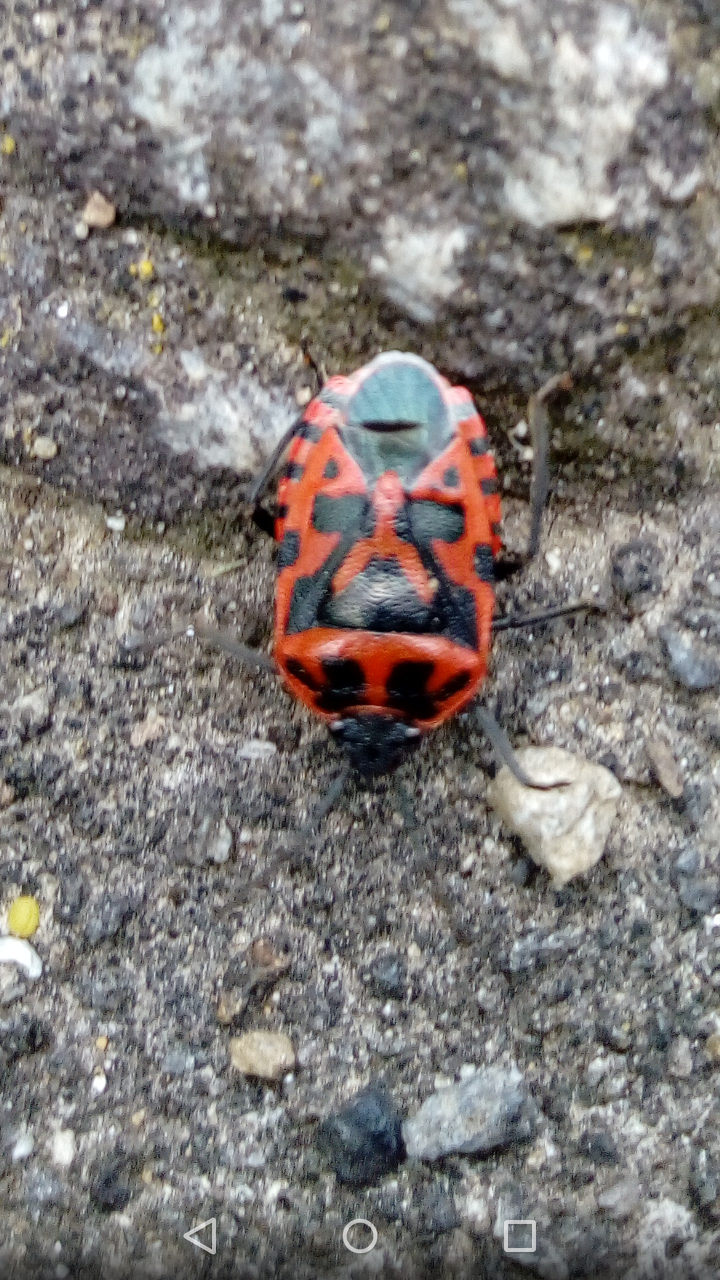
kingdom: Animalia
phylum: Arthropoda
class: Insecta
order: Hemiptera
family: Pentatomidae
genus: Eurydema
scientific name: Eurydema ventralis
